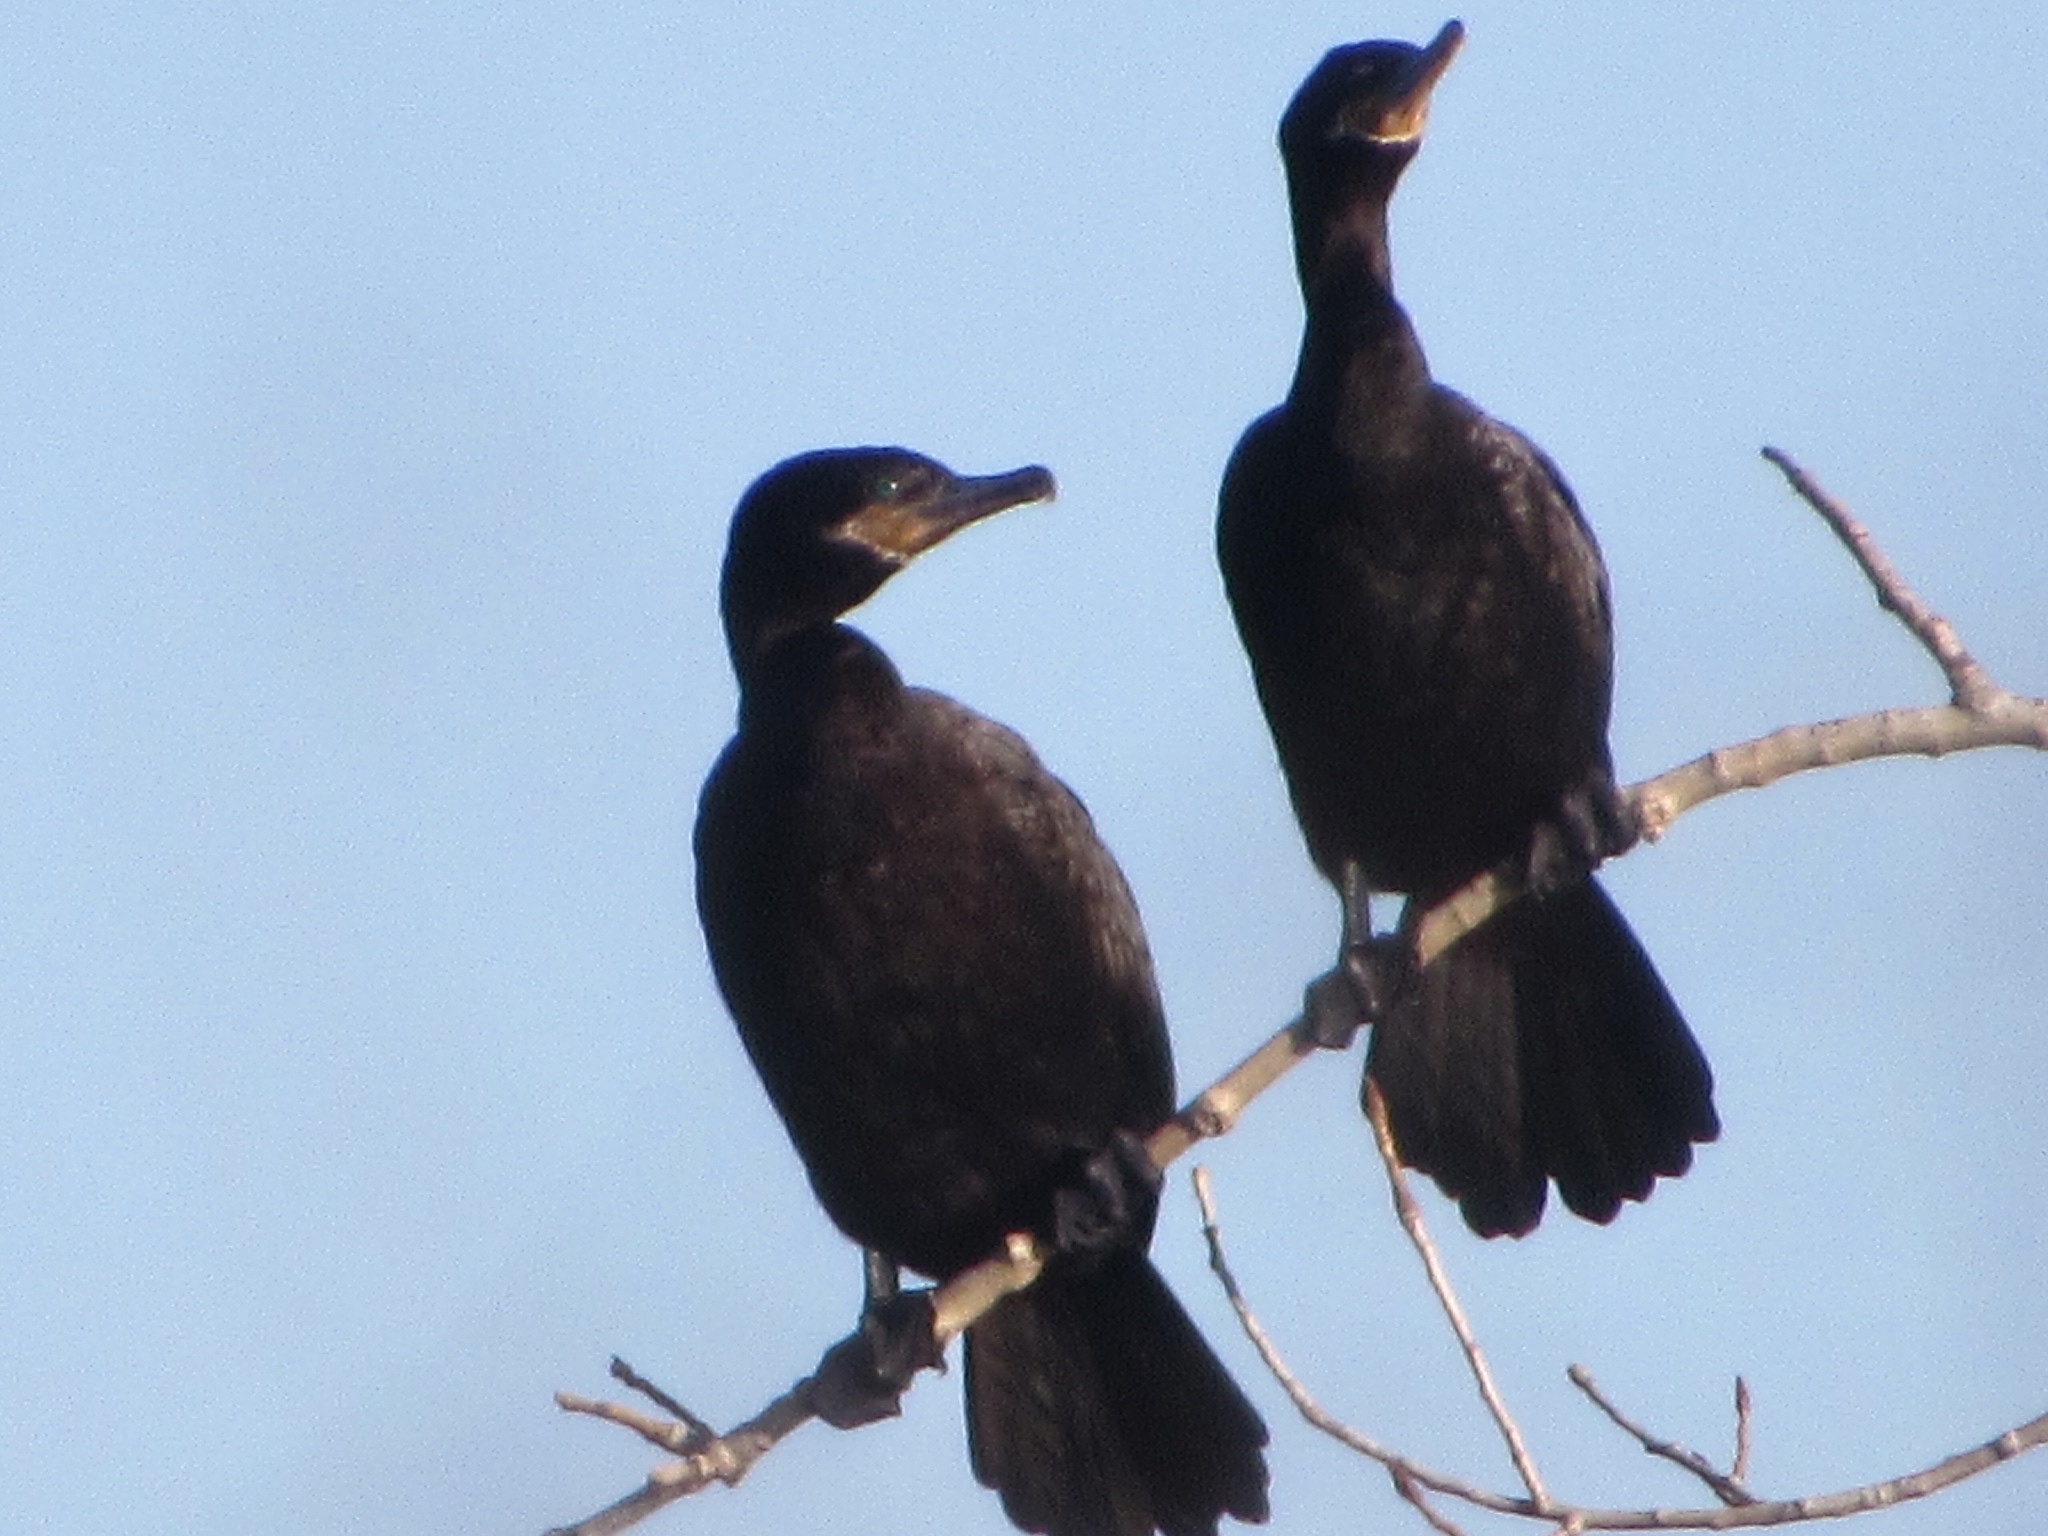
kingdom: Animalia
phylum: Chordata
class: Aves
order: Suliformes
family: Phalacrocoracidae
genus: Phalacrocorax
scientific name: Phalacrocorax brasilianus
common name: Neotropic cormorant
